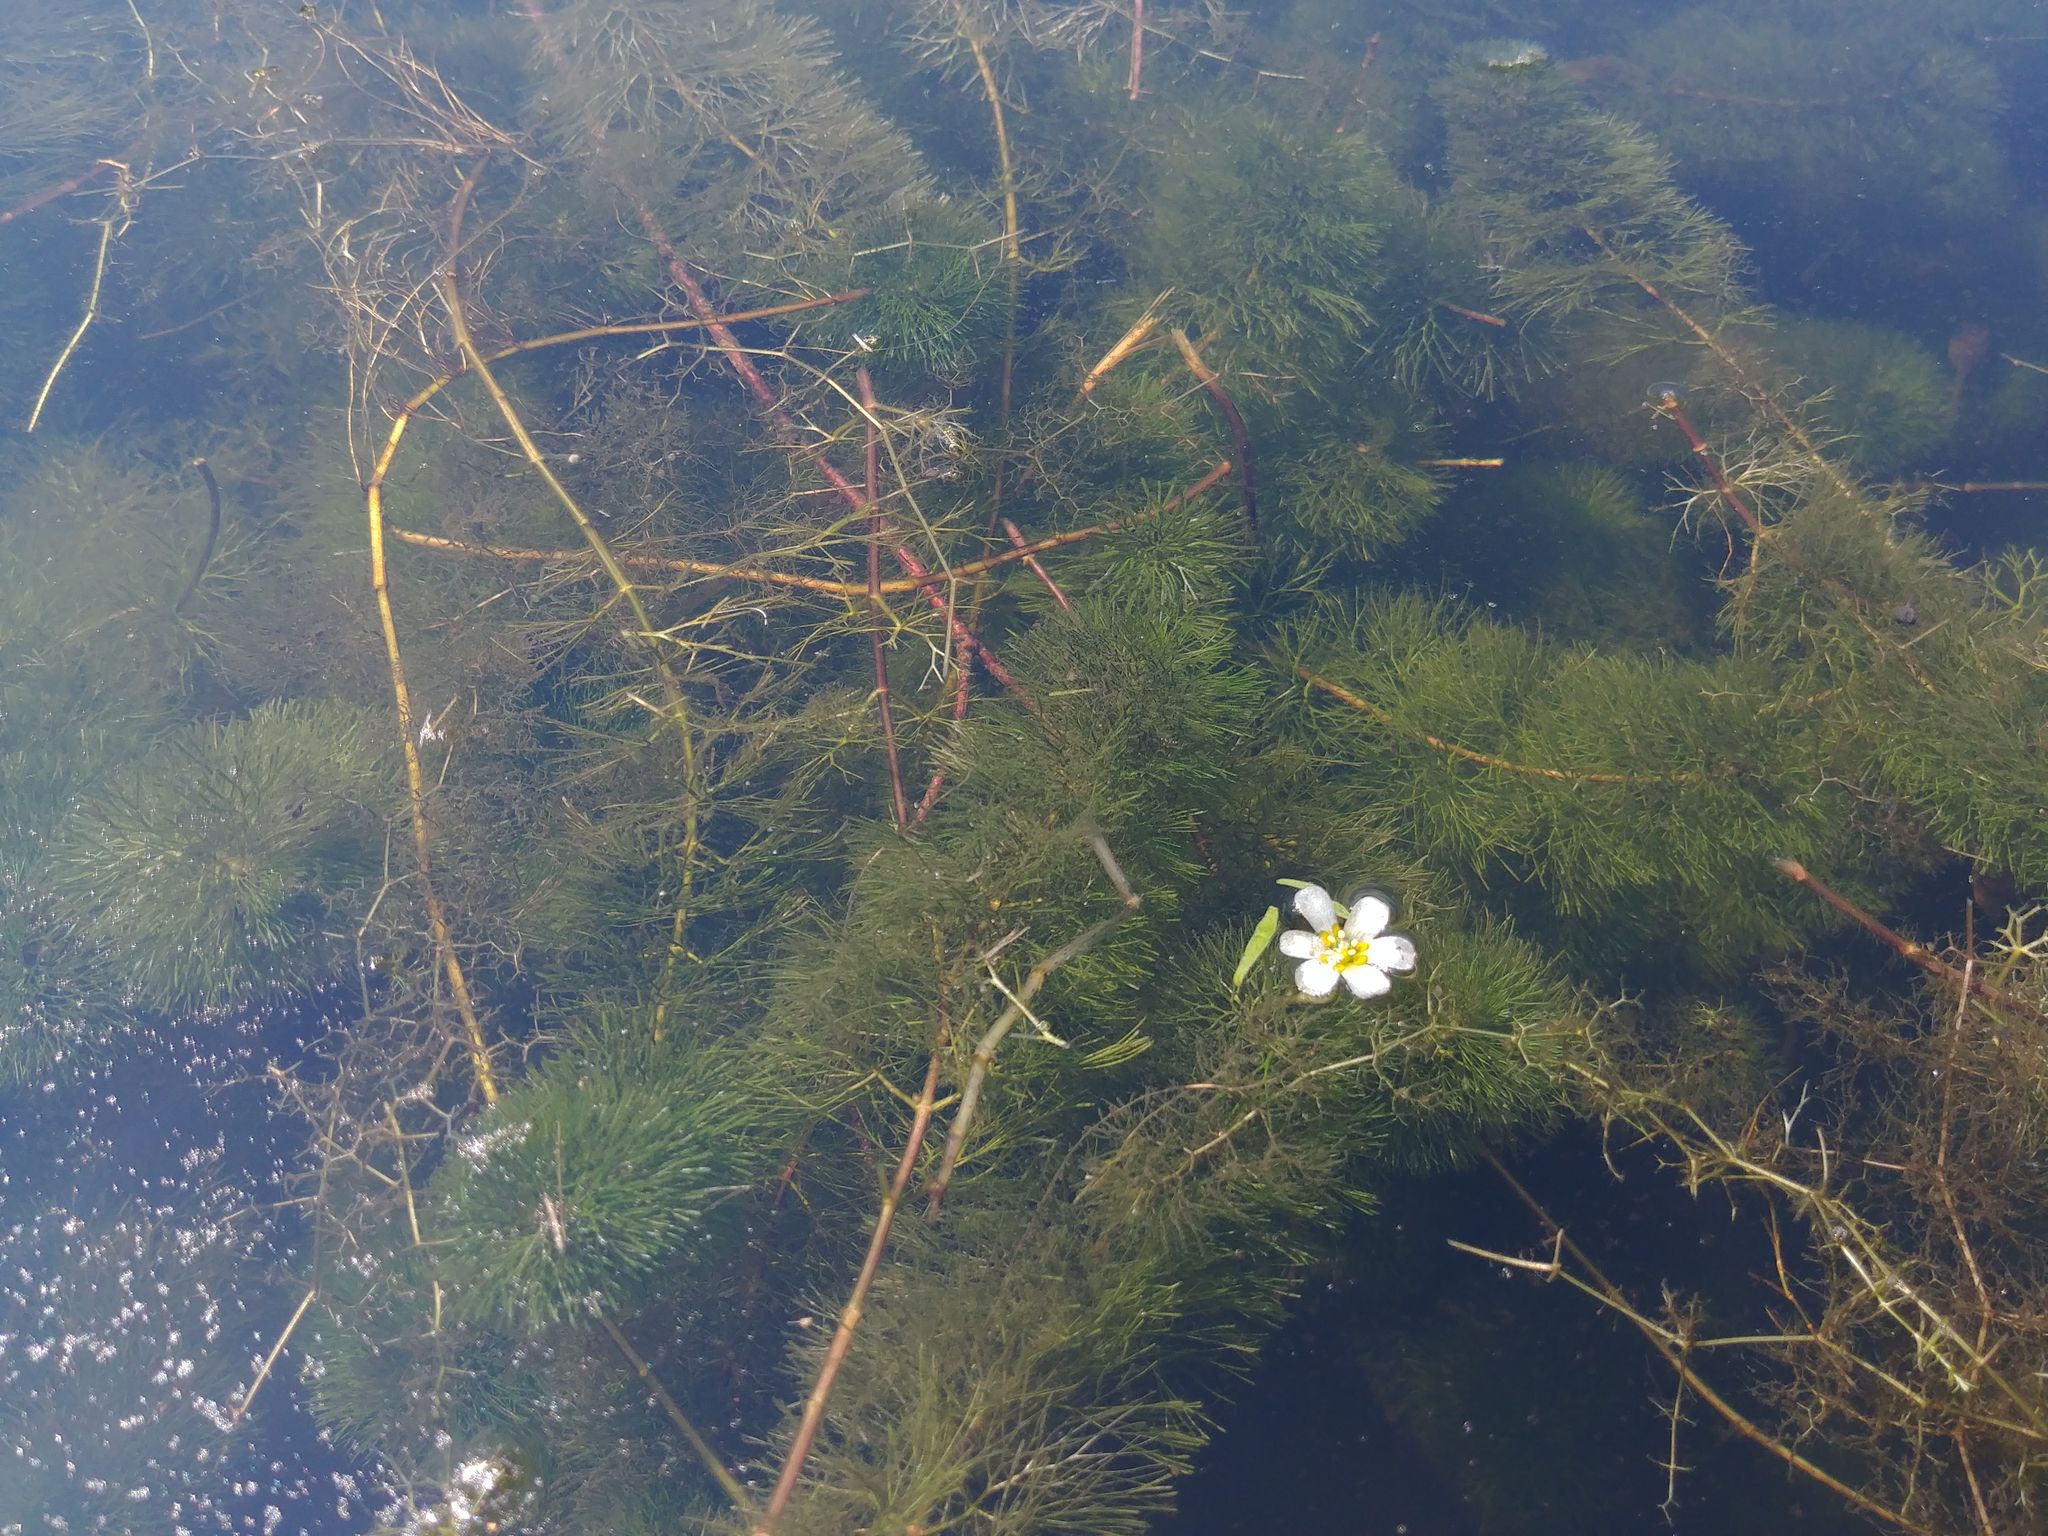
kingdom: Plantae
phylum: Tracheophyta
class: Magnoliopsida
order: Nymphaeales
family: Cabombaceae
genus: Cabomba
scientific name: Cabomba caroliniana
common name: Fanwort
